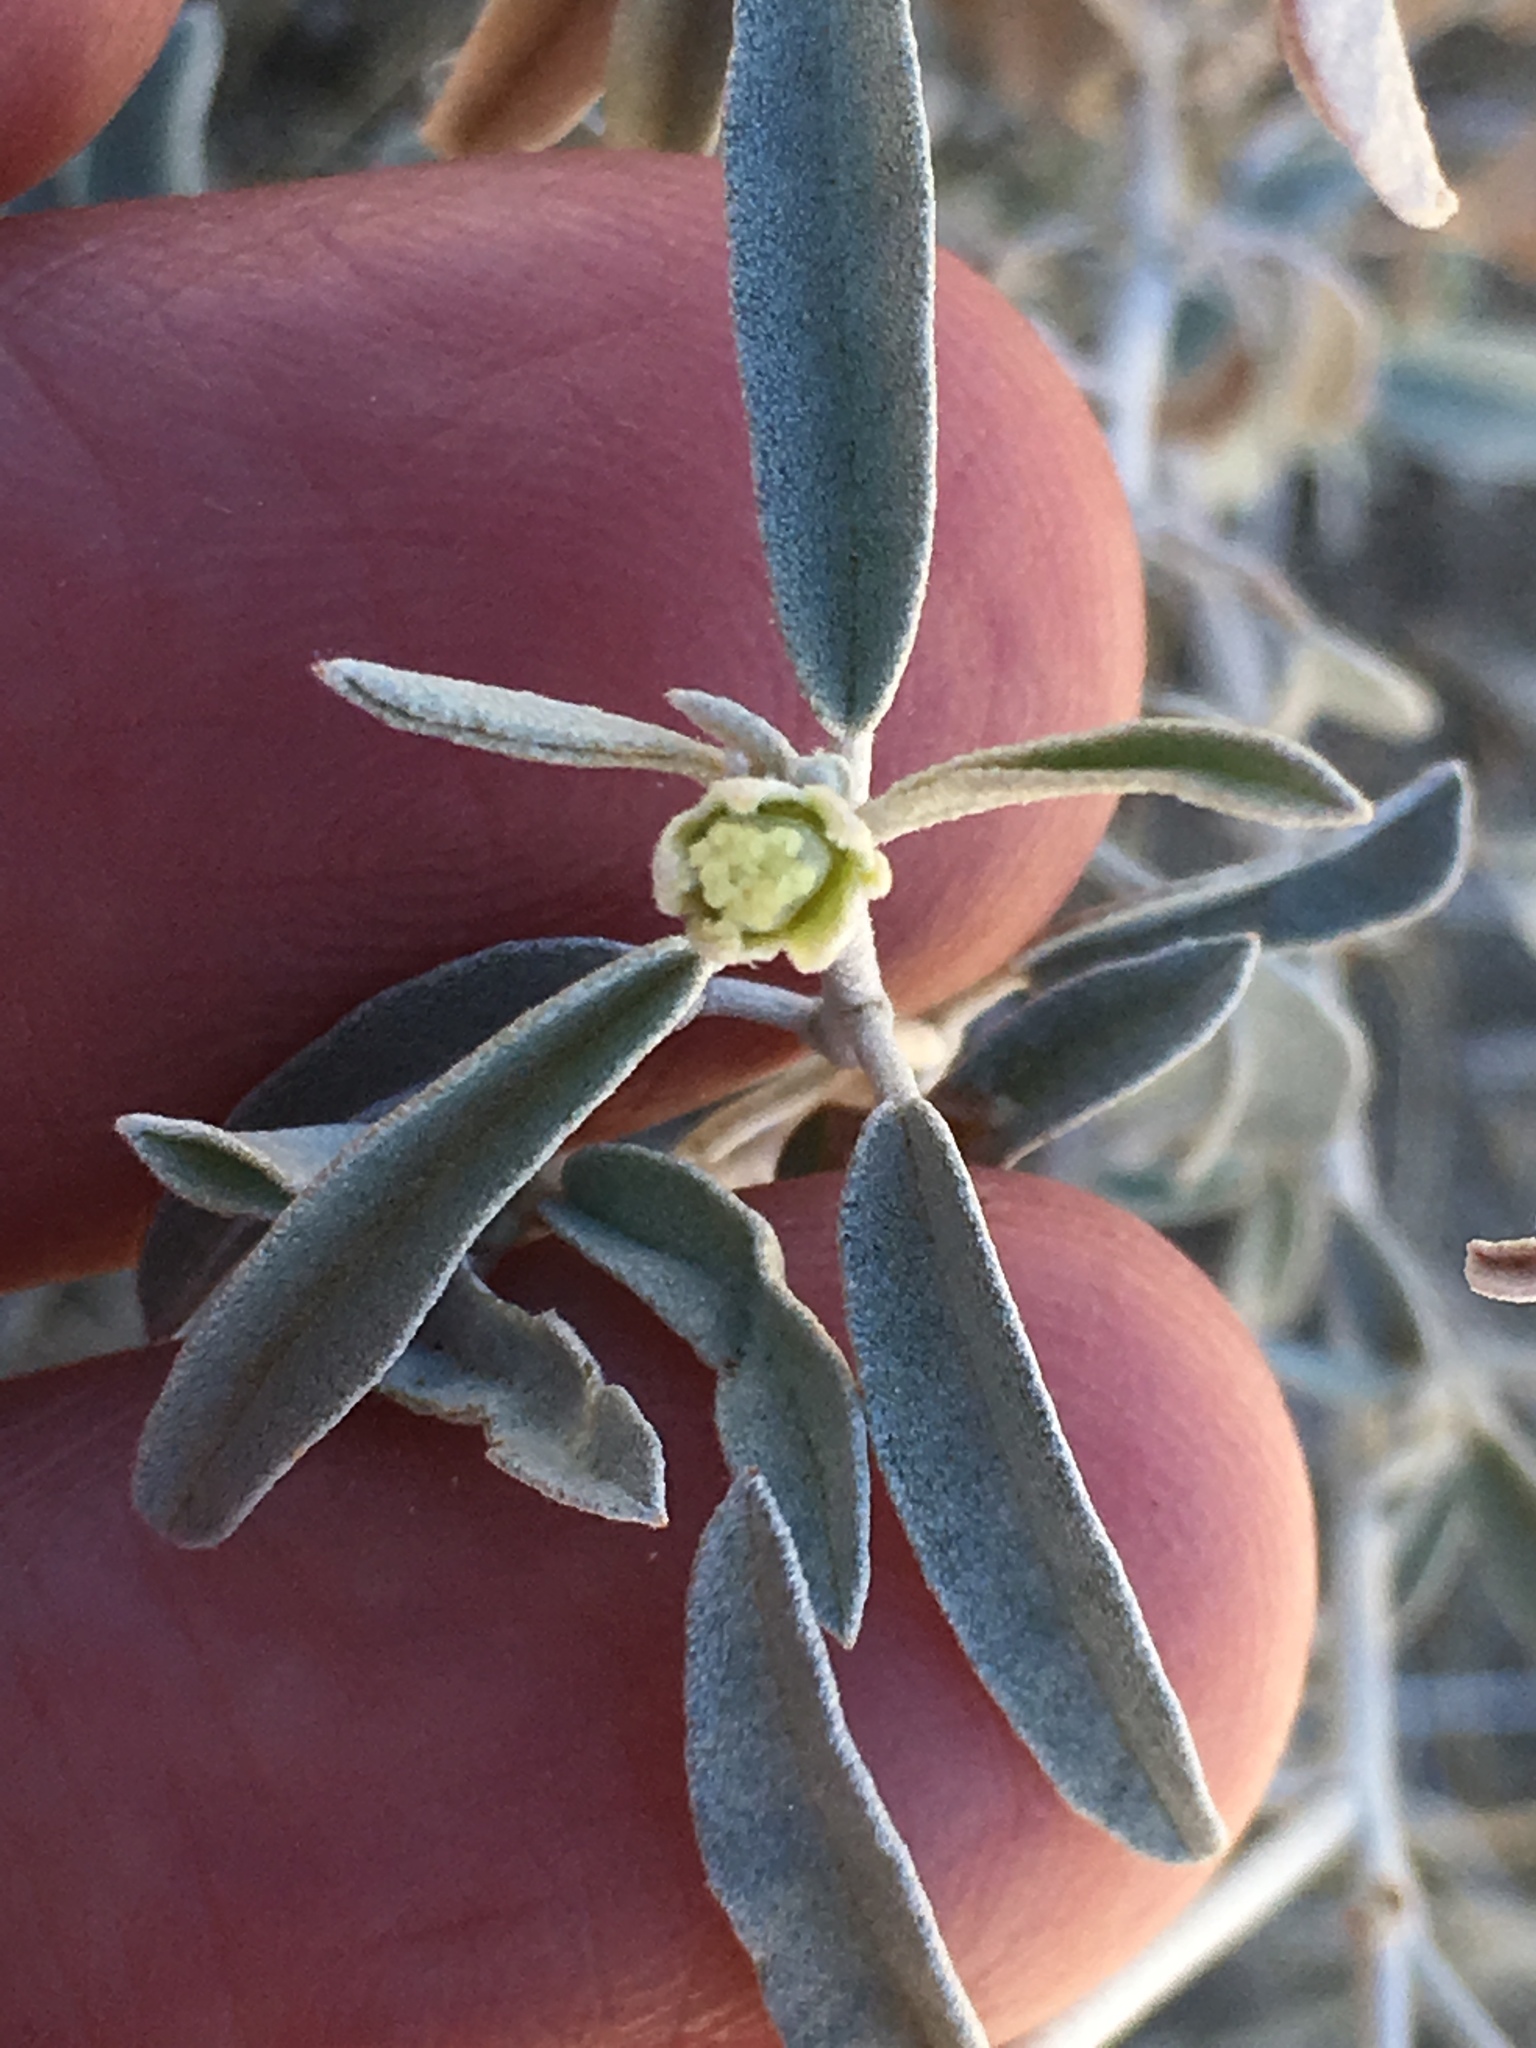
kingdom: Plantae
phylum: Tracheophyta
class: Magnoliopsida
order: Malpighiales
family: Euphorbiaceae
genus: Croton
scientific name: Croton californicus
